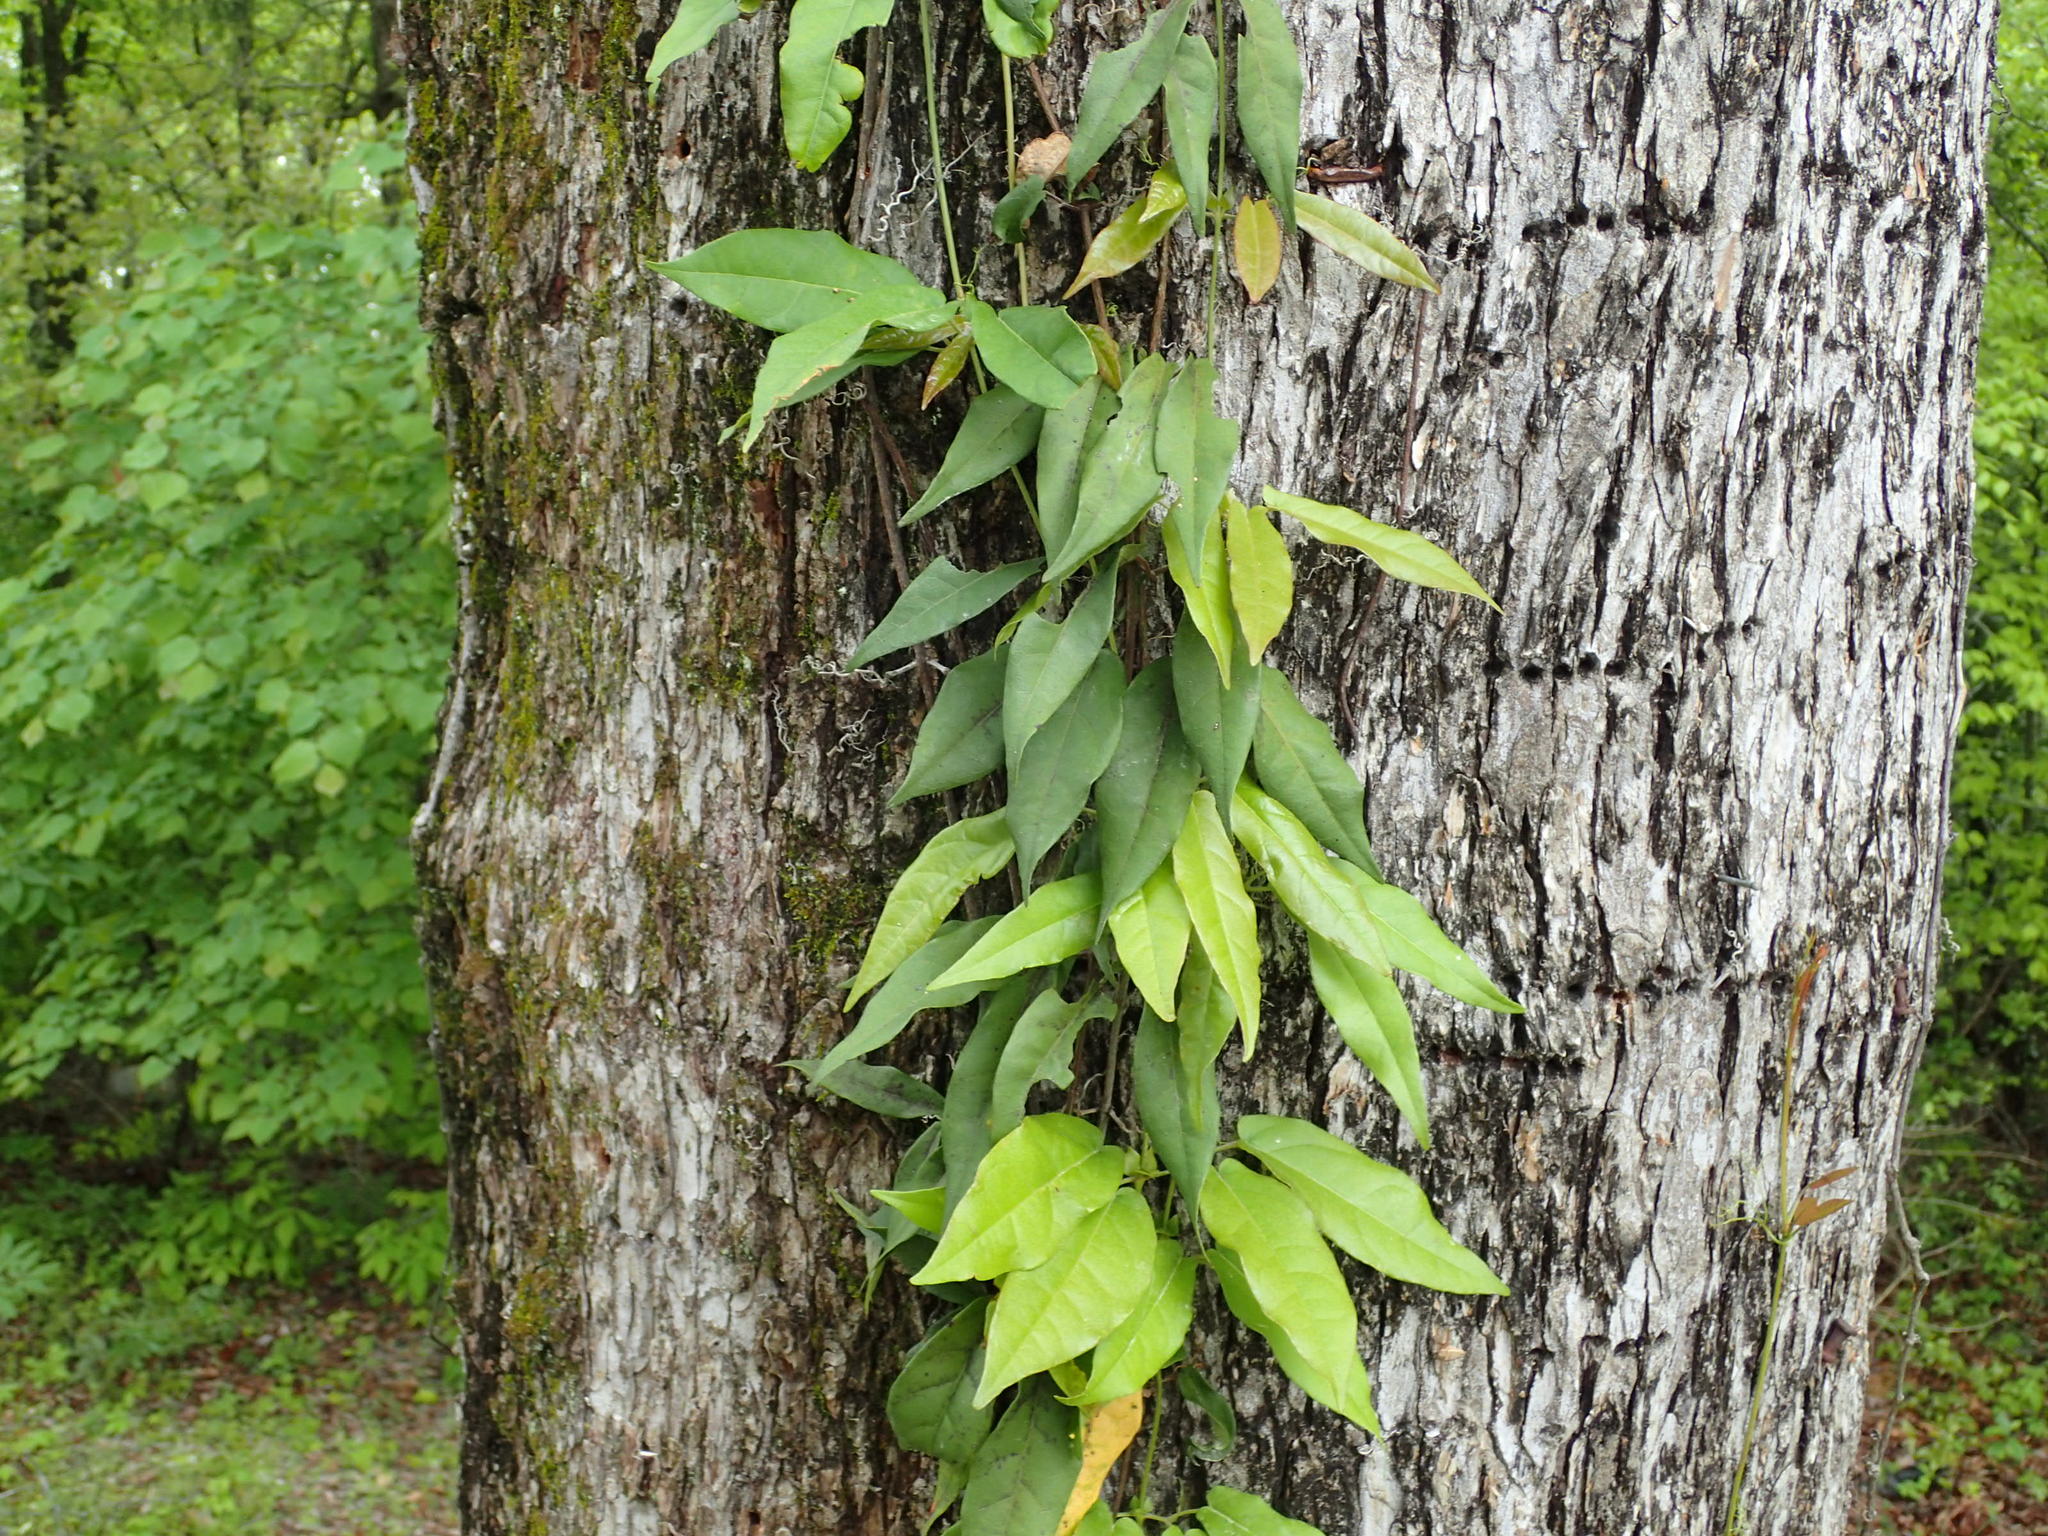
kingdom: Plantae
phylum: Tracheophyta
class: Magnoliopsida
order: Lamiales
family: Bignoniaceae
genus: Bignonia
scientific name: Bignonia capreolata
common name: Crossvine
